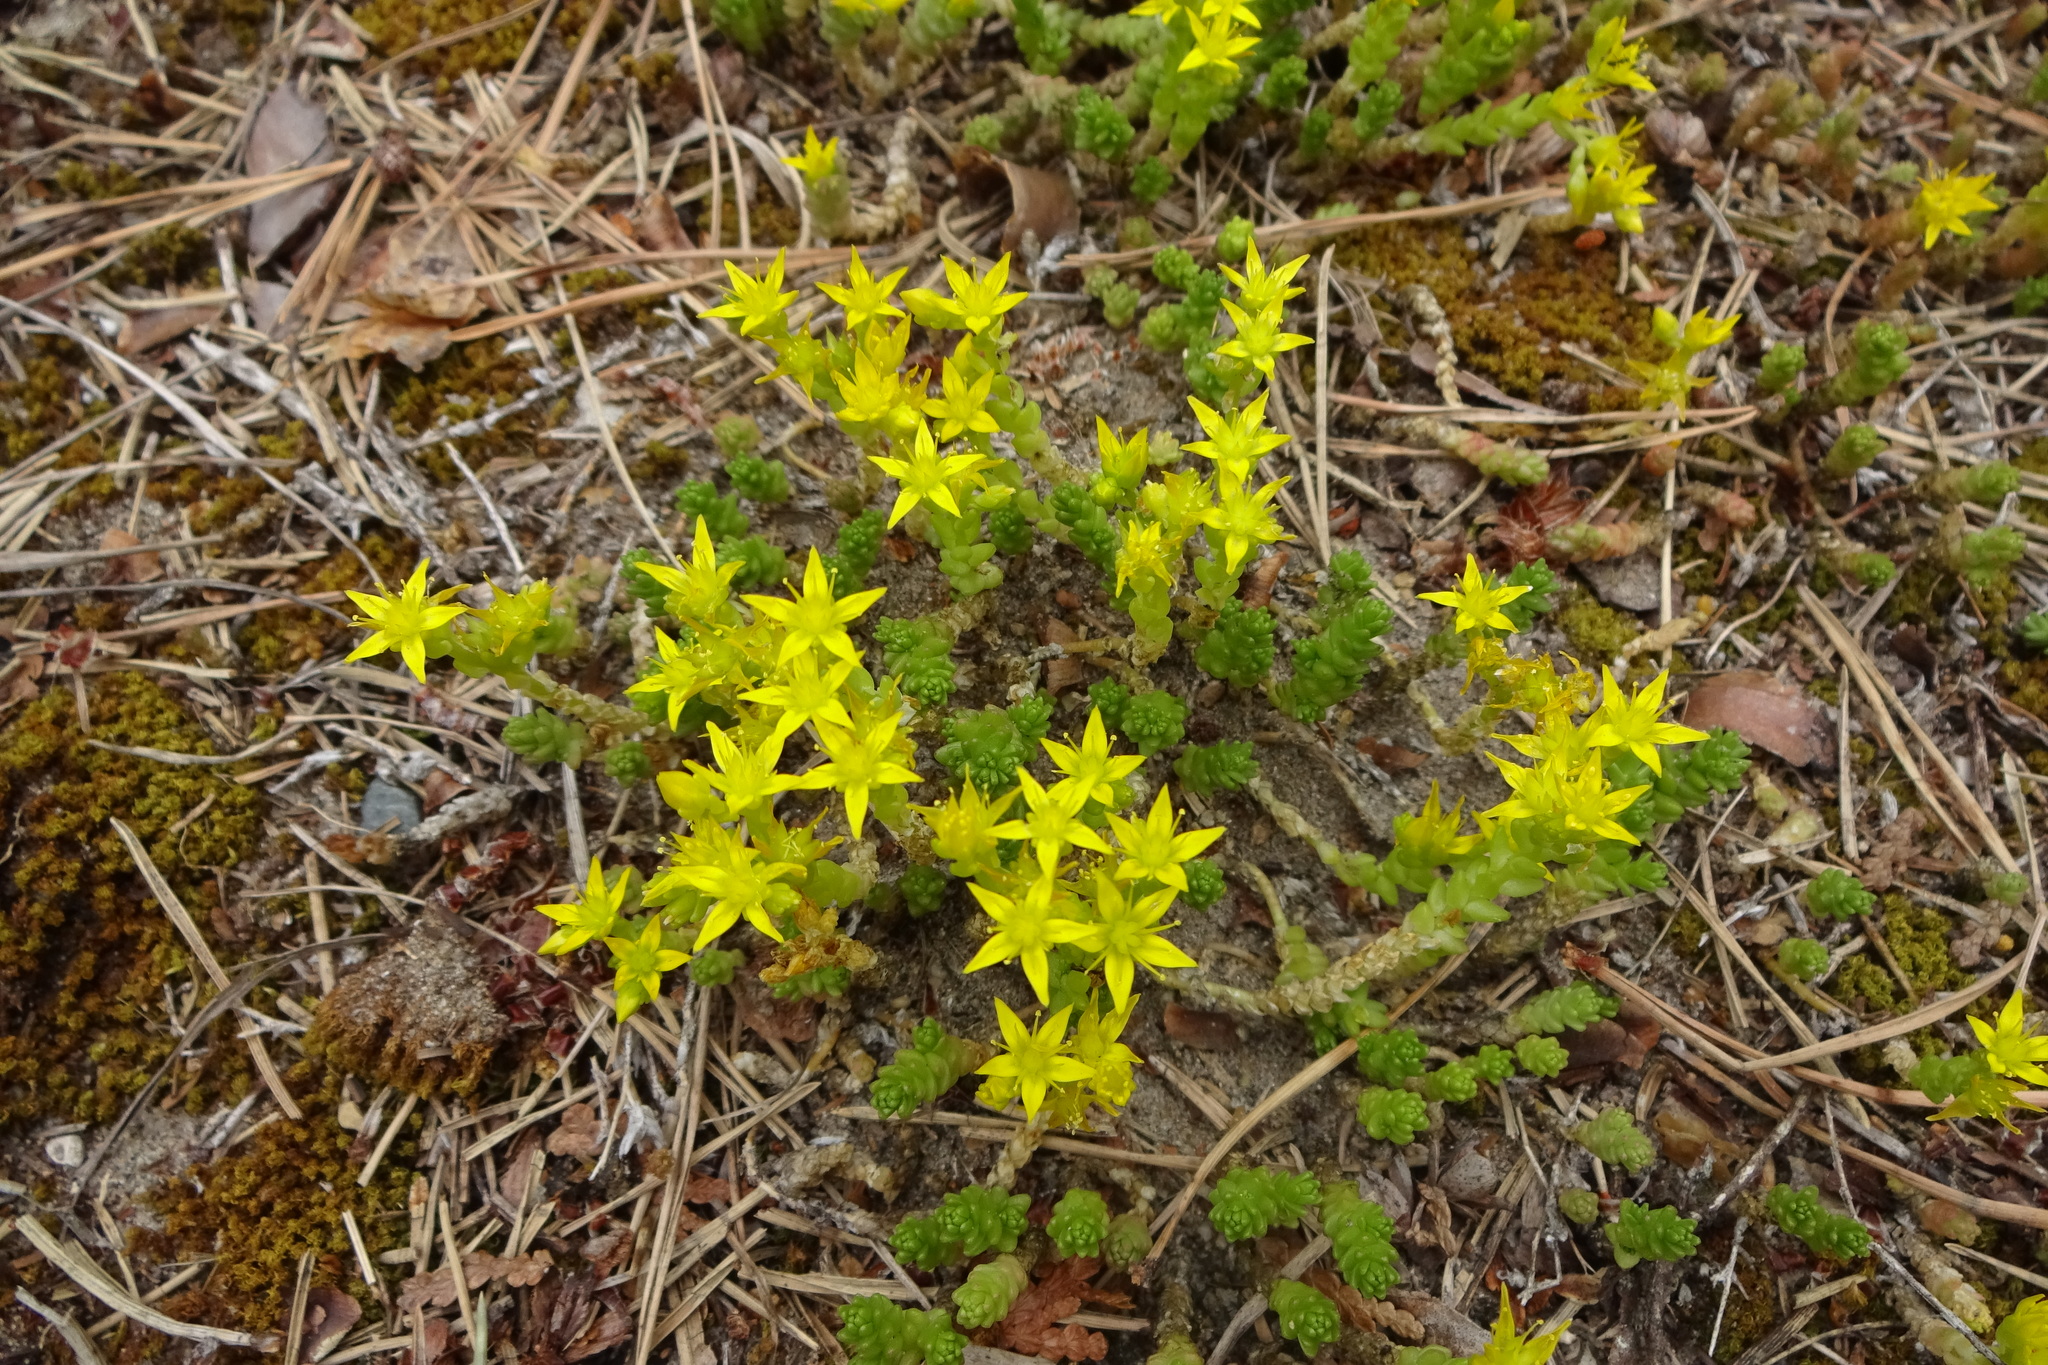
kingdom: Plantae
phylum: Tracheophyta
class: Magnoliopsida
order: Saxifragales
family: Crassulaceae
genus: Sedum
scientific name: Sedum acre
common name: Biting stonecrop
